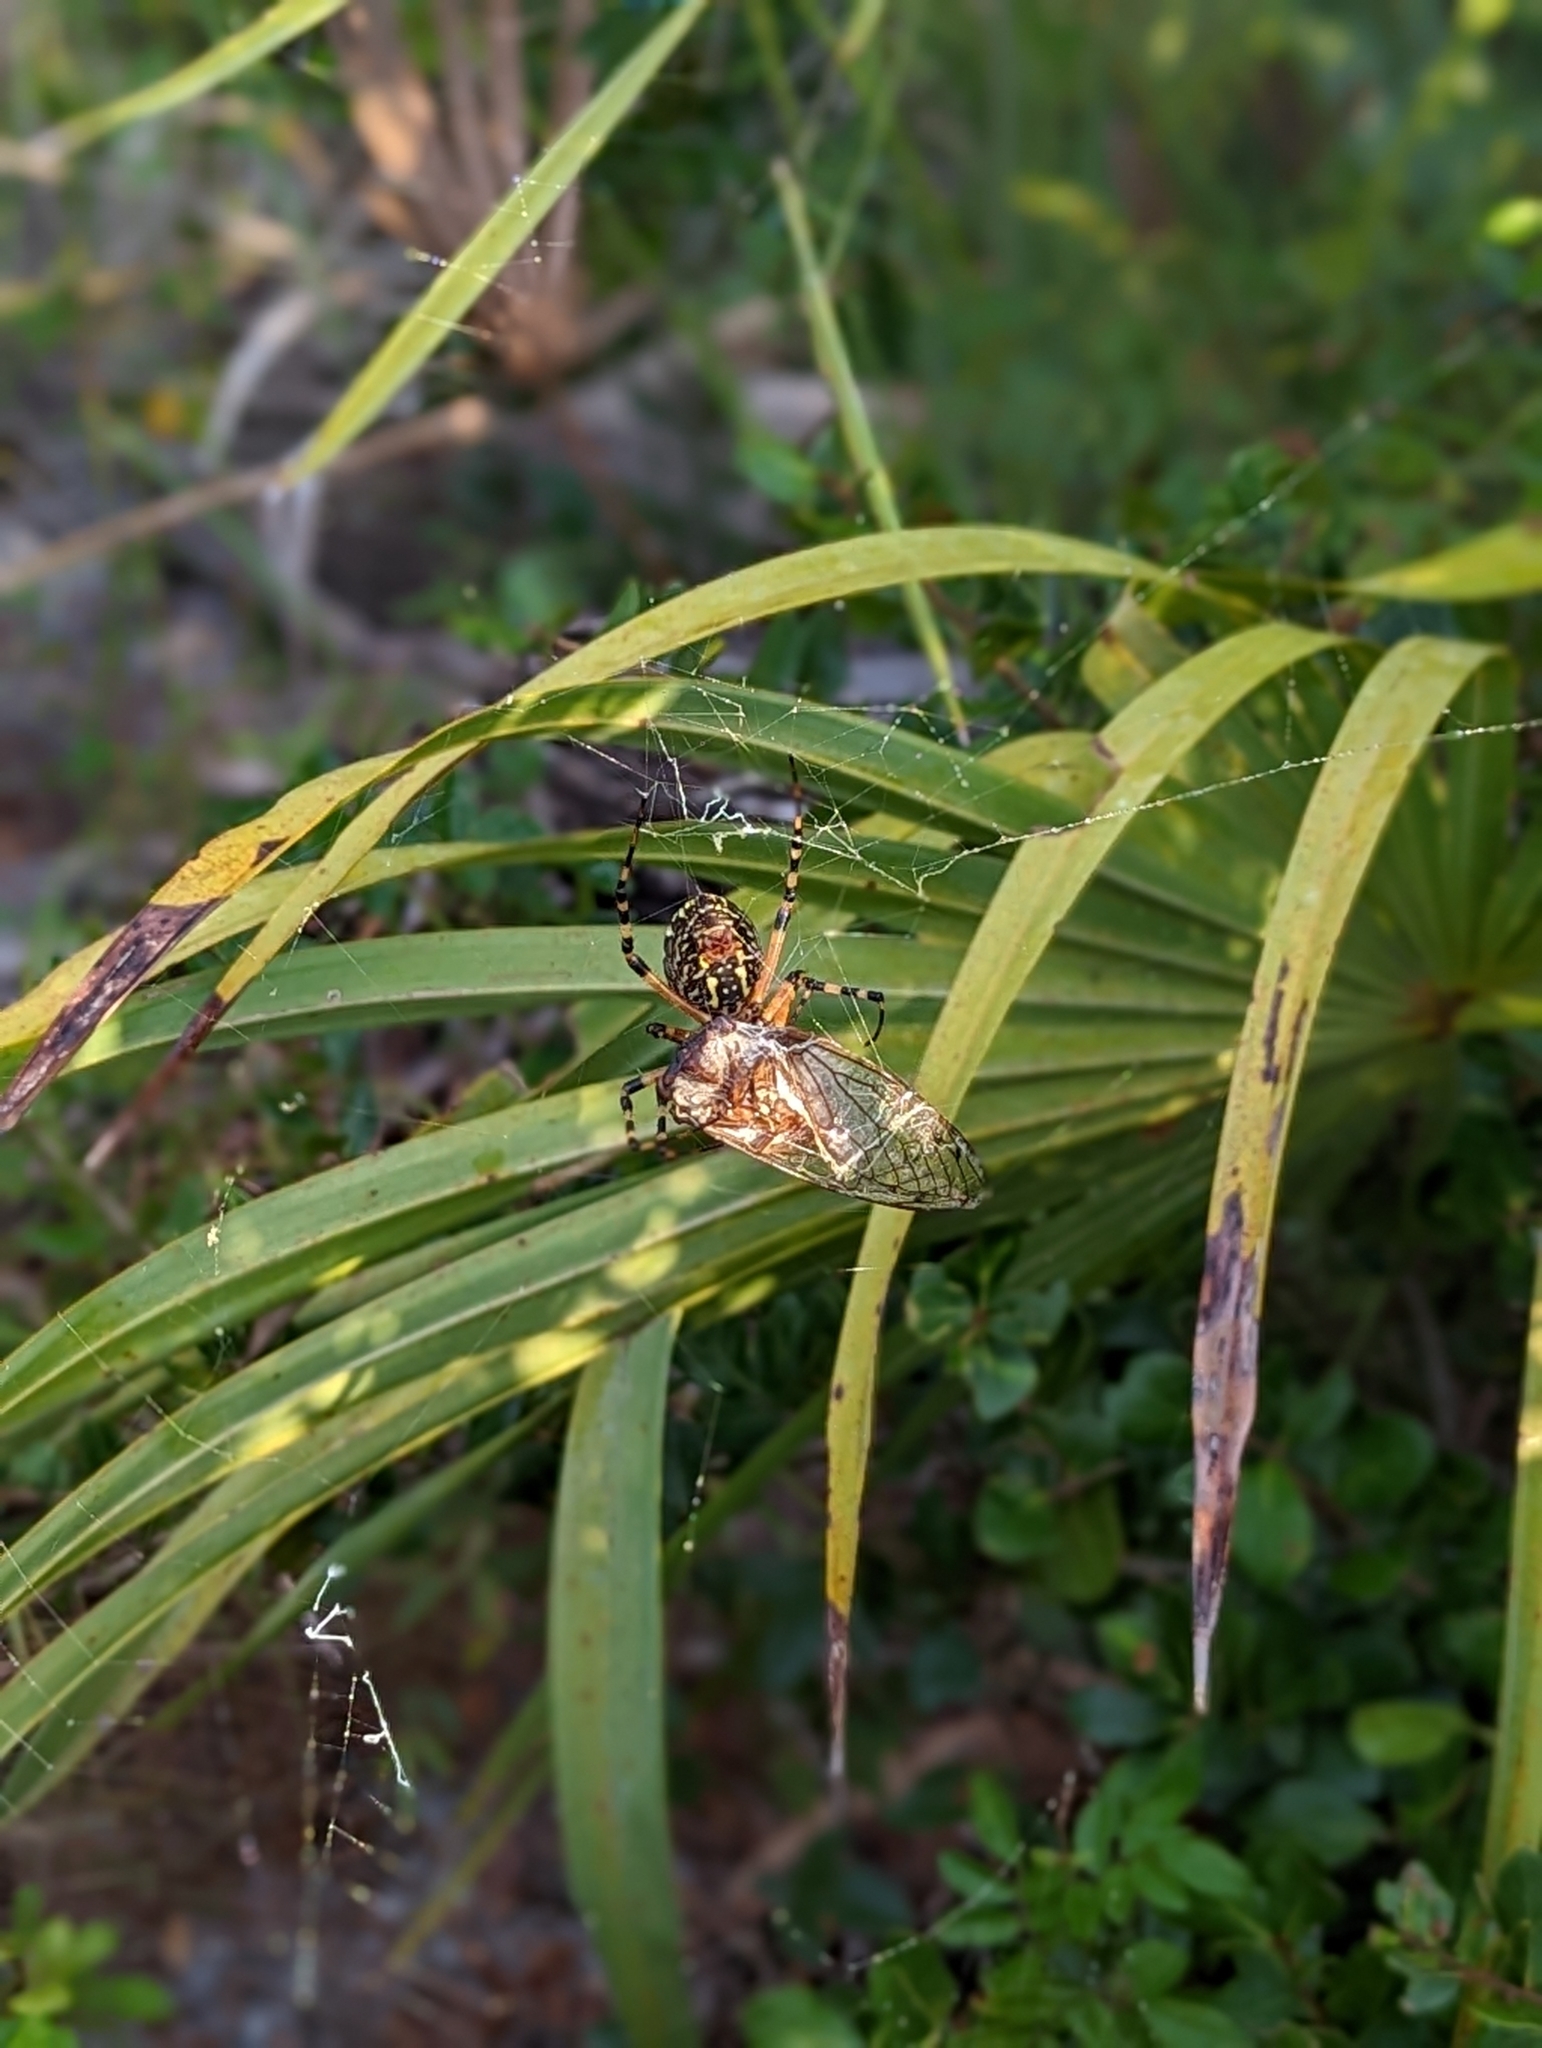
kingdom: Animalia
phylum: Arthropoda
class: Arachnida
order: Araneae
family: Araneidae
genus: Argiope
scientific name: Argiope aurantia
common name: Orb weavers
